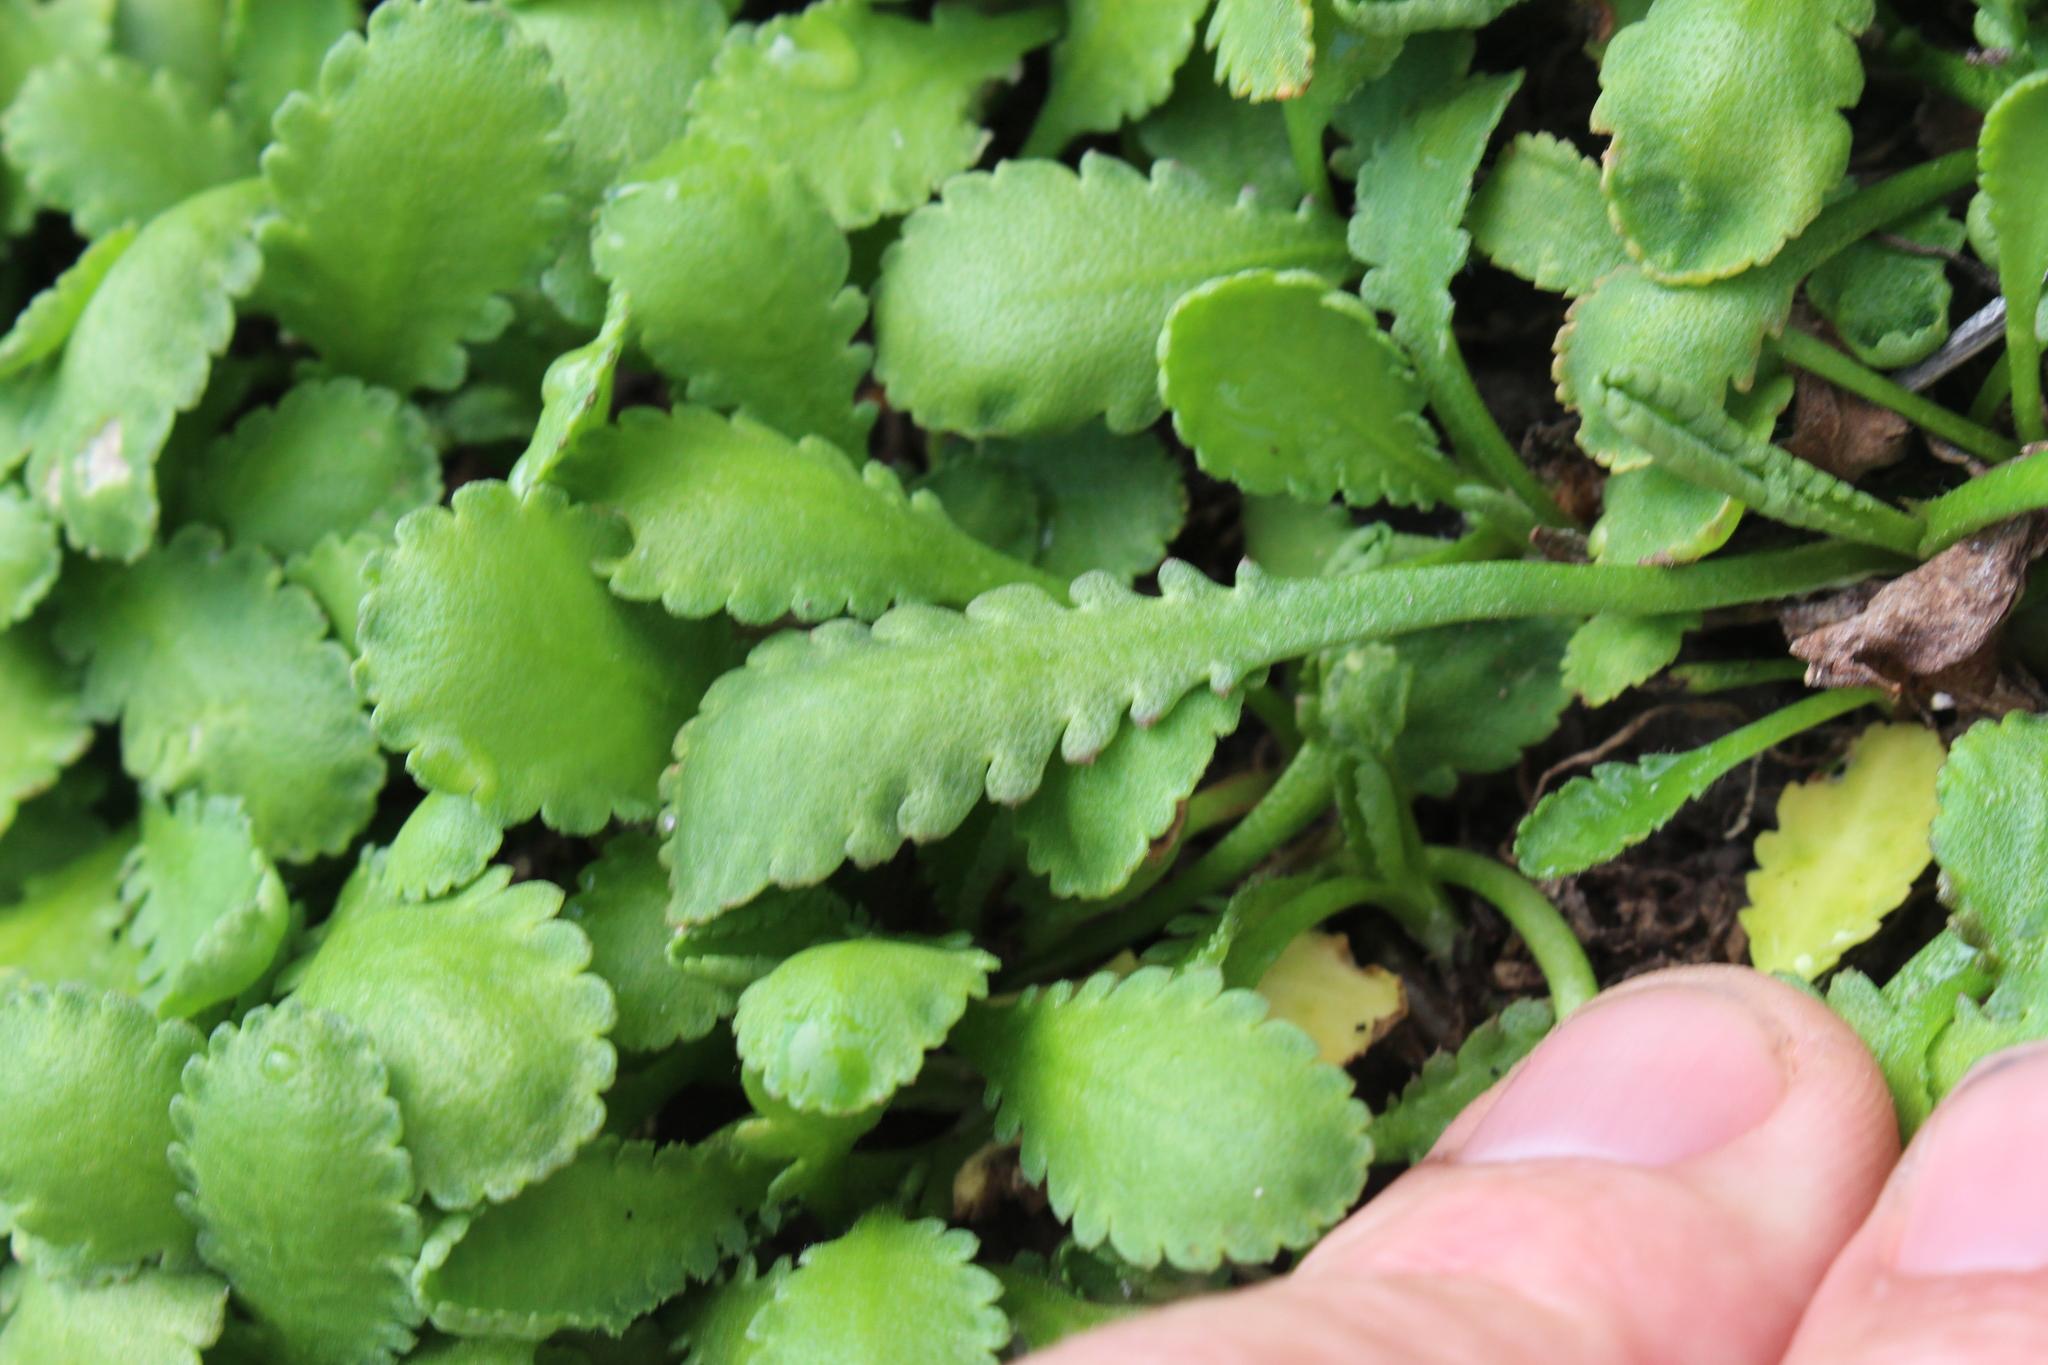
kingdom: Plantae
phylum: Tracheophyta
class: Magnoliopsida
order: Asterales
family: Asteraceae
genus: Leptinella
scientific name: Leptinella dioica
